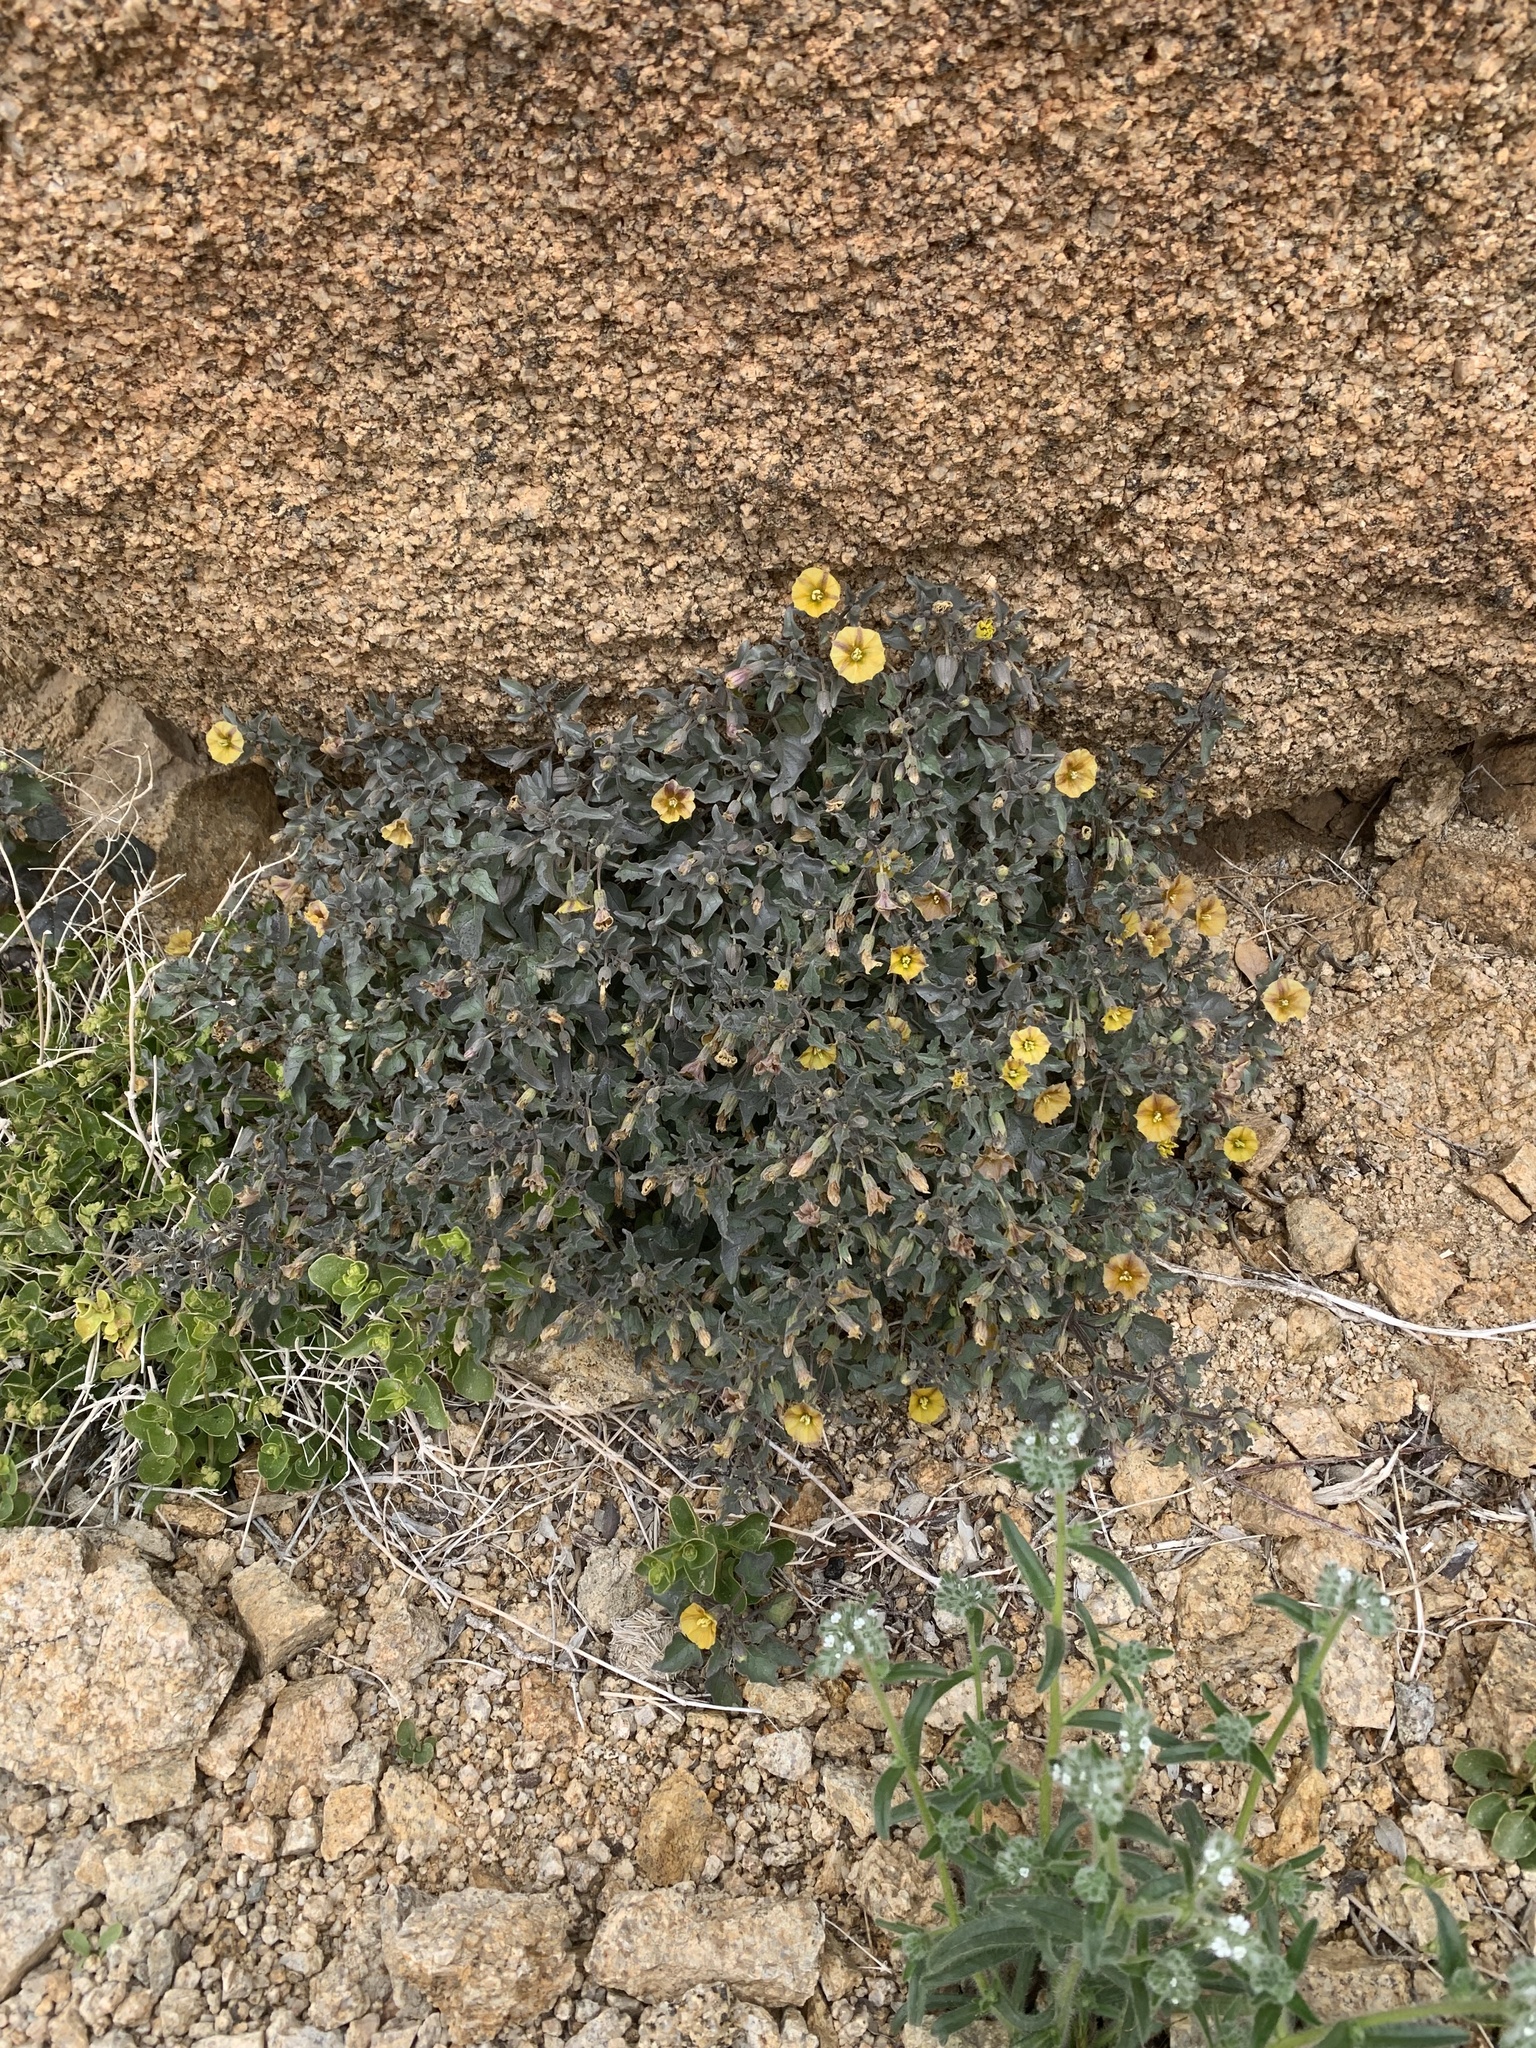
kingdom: Plantae
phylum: Tracheophyta
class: Magnoliopsida
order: Solanales
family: Solanaceae
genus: Physalis
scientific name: Physalis crassifolia
